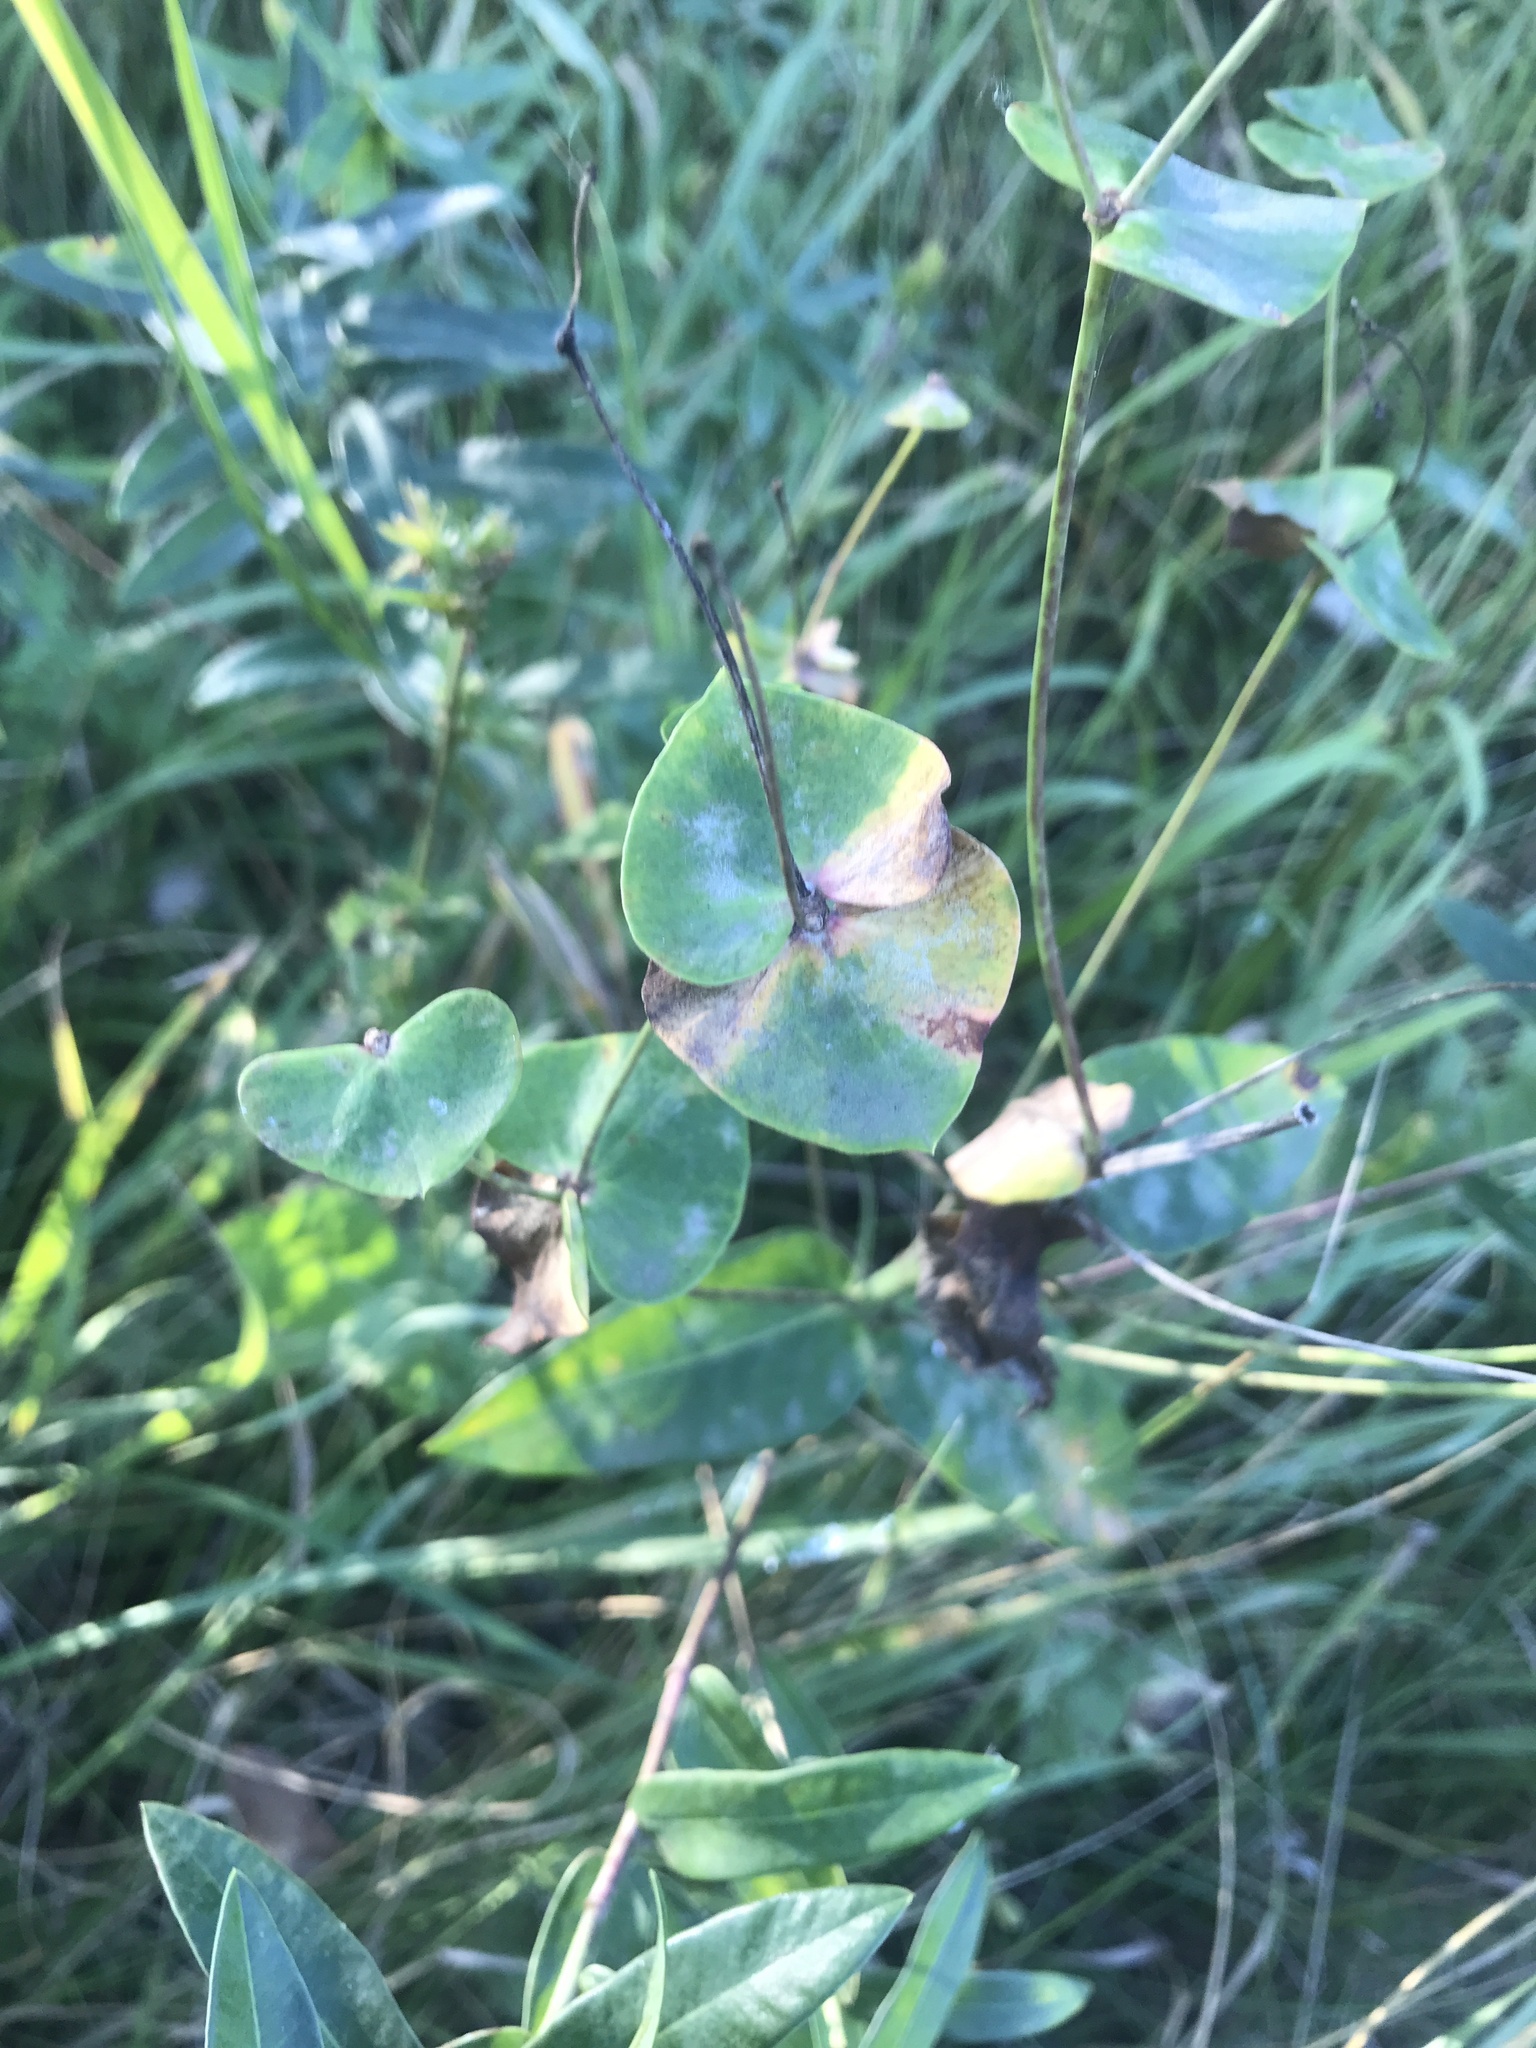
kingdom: Plantae
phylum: Tracheophyta
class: Magnoliopsida
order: Malpighiales
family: Euphorbiaceae
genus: Euphorbia
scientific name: Euphorbia iberica
